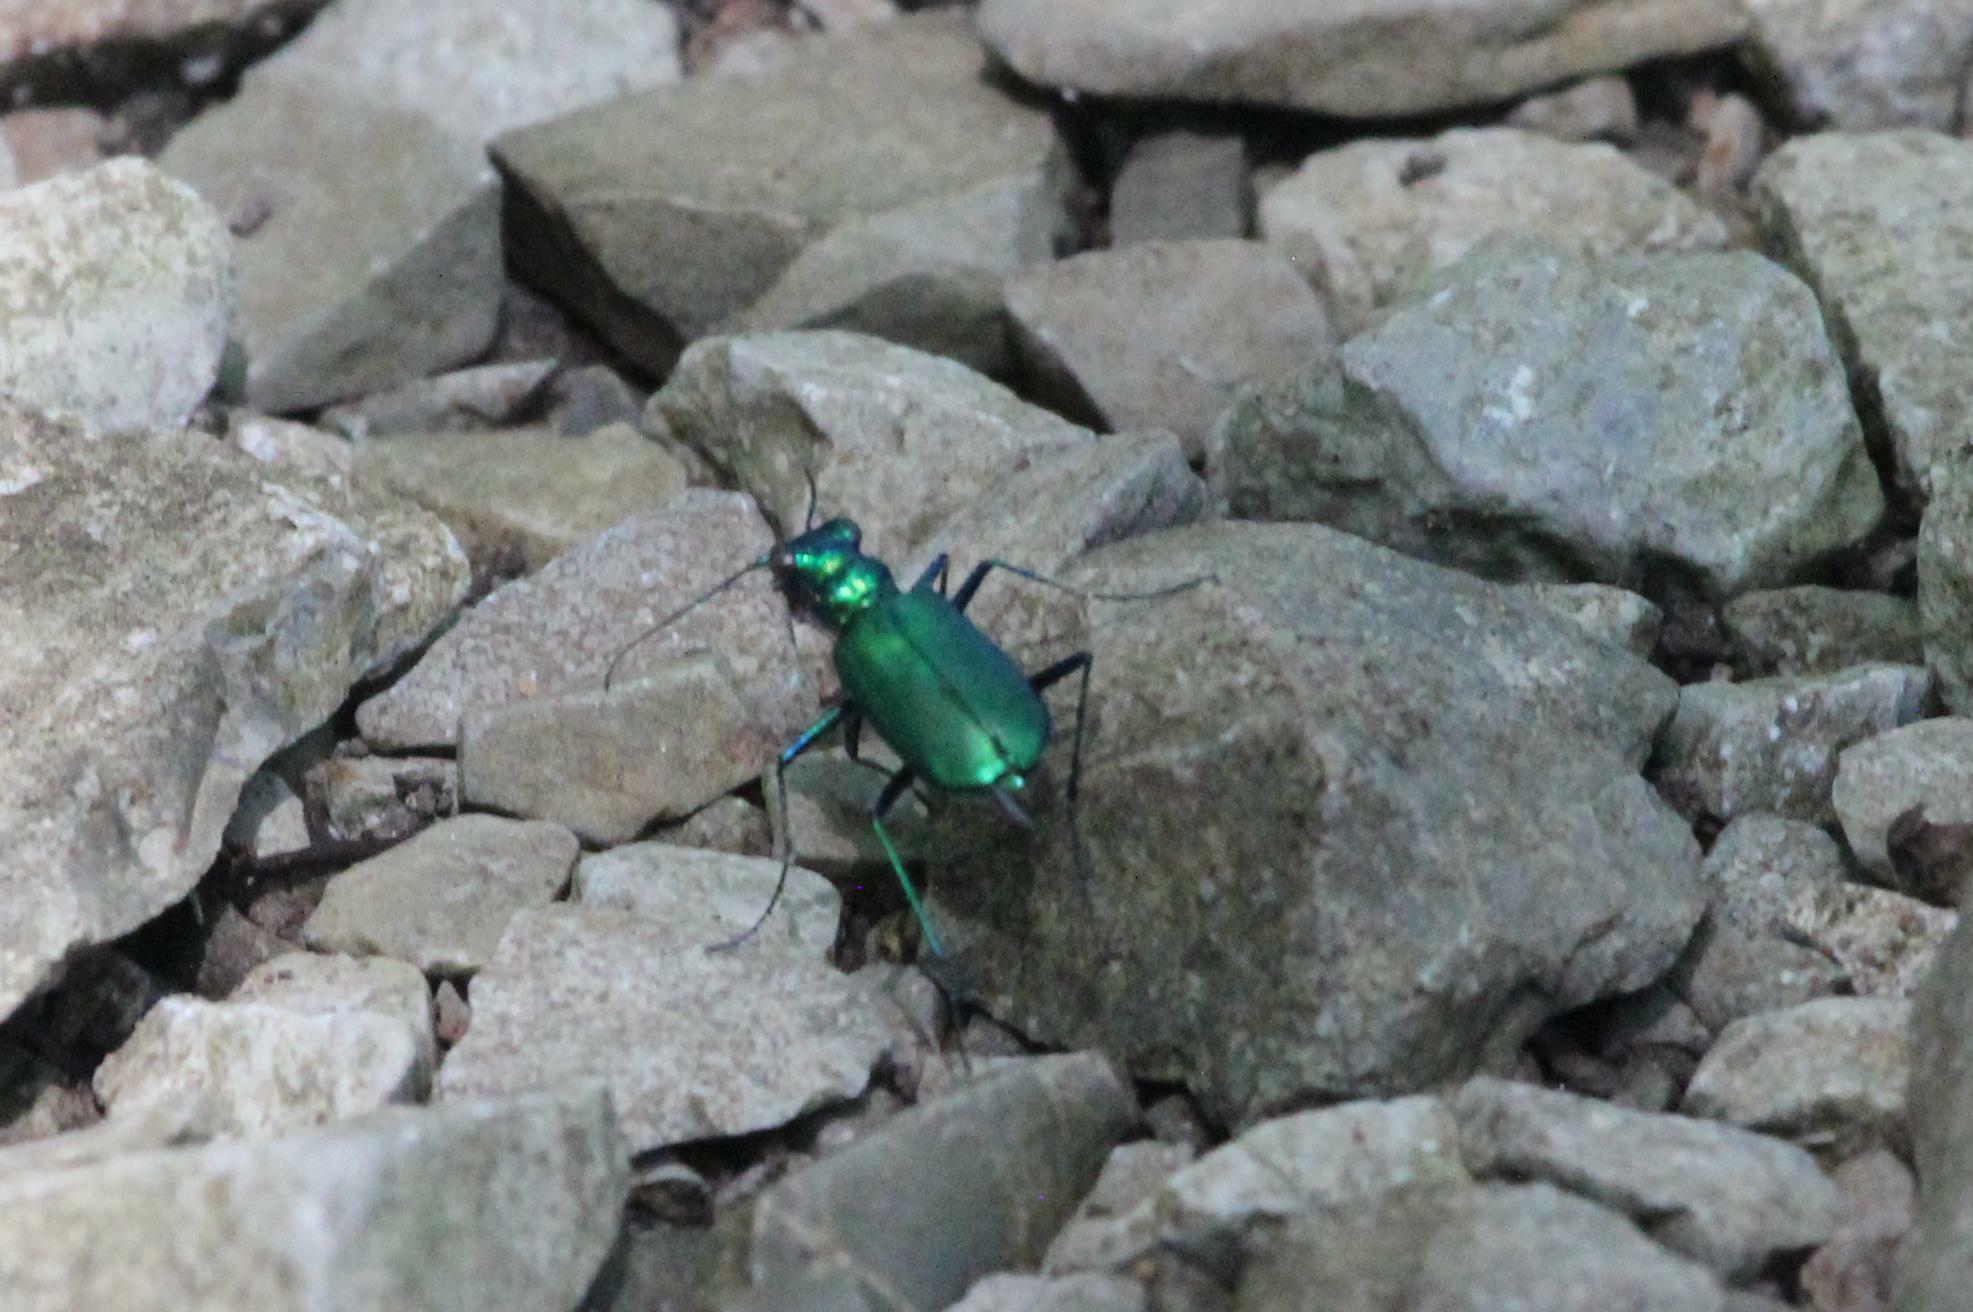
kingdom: Animalia
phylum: Arthropoda
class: Insecta
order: Coleoptera
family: Carabidae
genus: Cicindela
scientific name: Cicindela sexguttata
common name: Six-spotted tiger beetle
